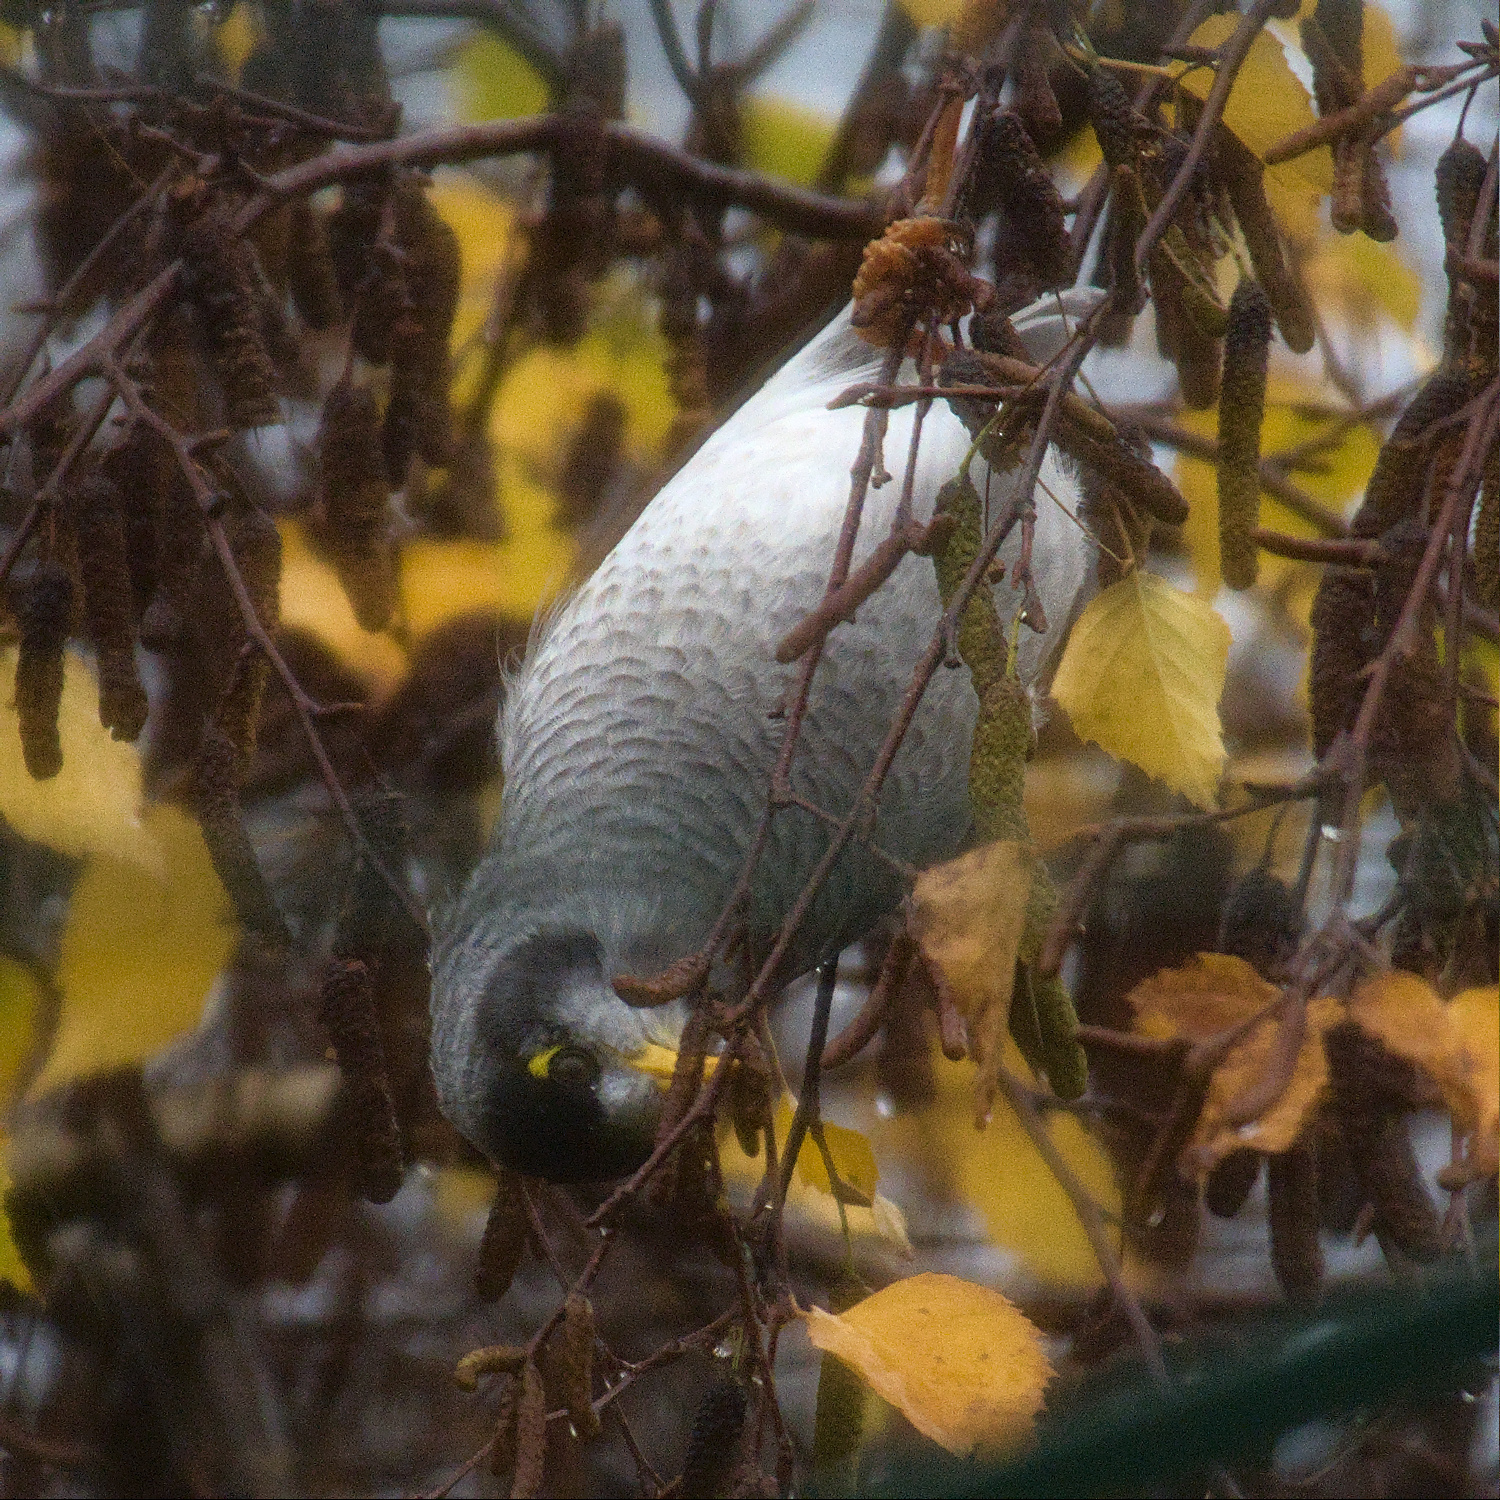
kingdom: Animalia
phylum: Chordata
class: Aves
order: Passeriformes
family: Meliphagidae
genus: Manorina
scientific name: Manorina melanocephala
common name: Noisy miner
